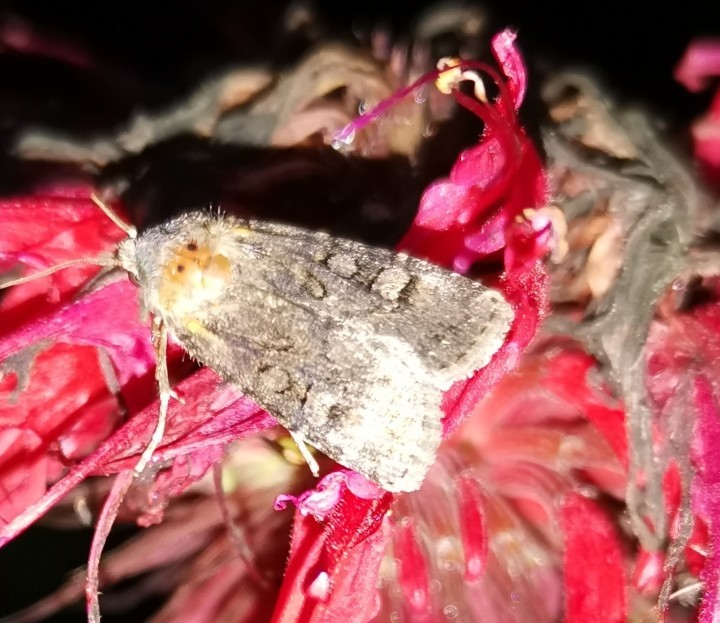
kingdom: Animalia
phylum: Arthropoda
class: Insecta
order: Lepidoptera
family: Noctuidae
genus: Euxoa
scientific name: Euxoa nigricans
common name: Garden dart
